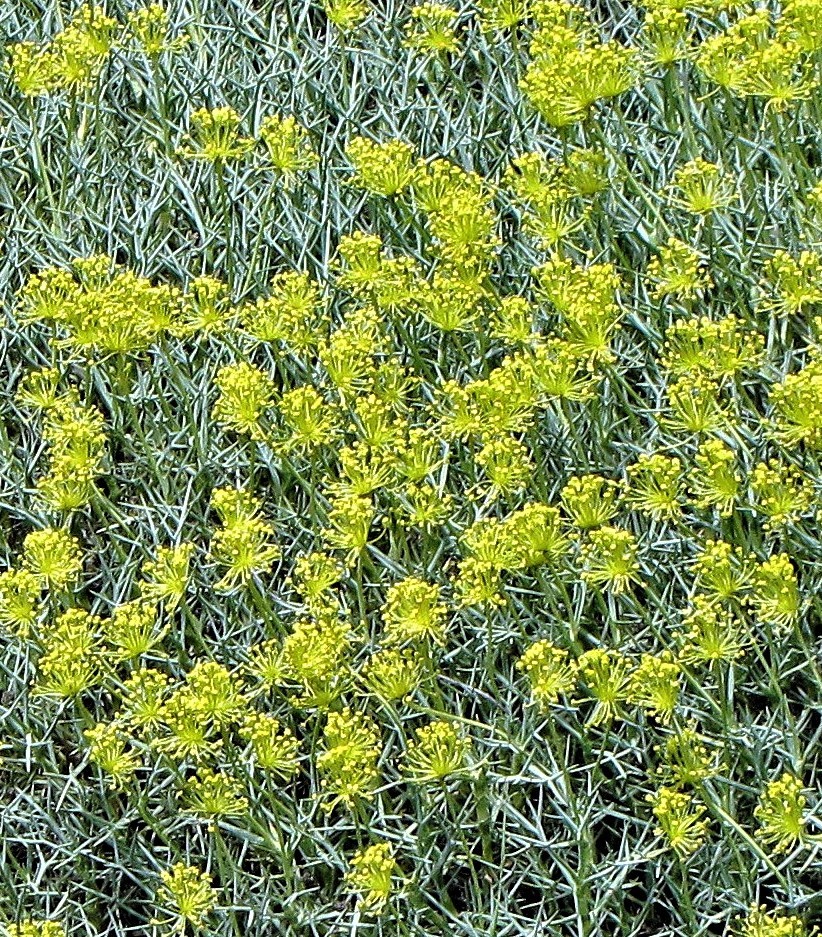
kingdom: Plantae
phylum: Tracheophyta
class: Magnoliopsida
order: Apiales
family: Apiaceae
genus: Azorella
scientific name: Azorella prolifera
